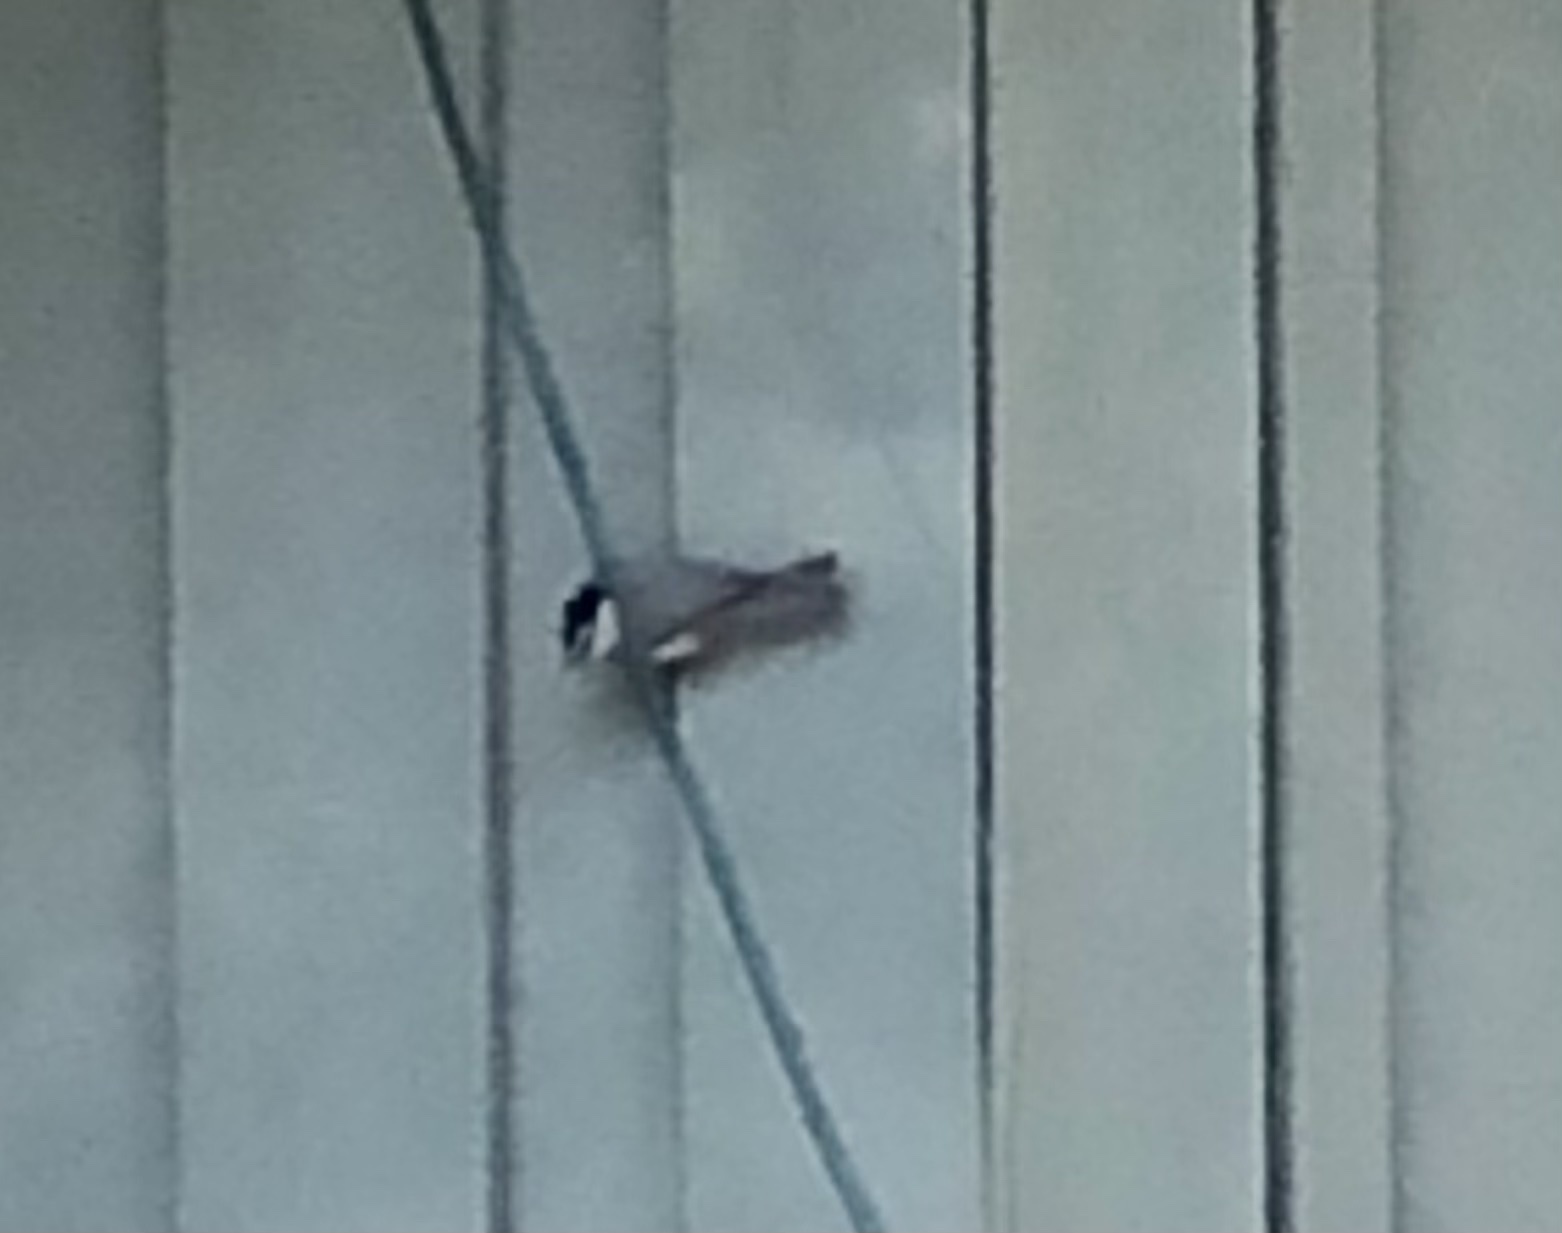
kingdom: Animalia
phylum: Chordata
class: Aves
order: Passeriformes
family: Paridae
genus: Poecile
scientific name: Poecile gambeli
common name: Mountain chickadee
